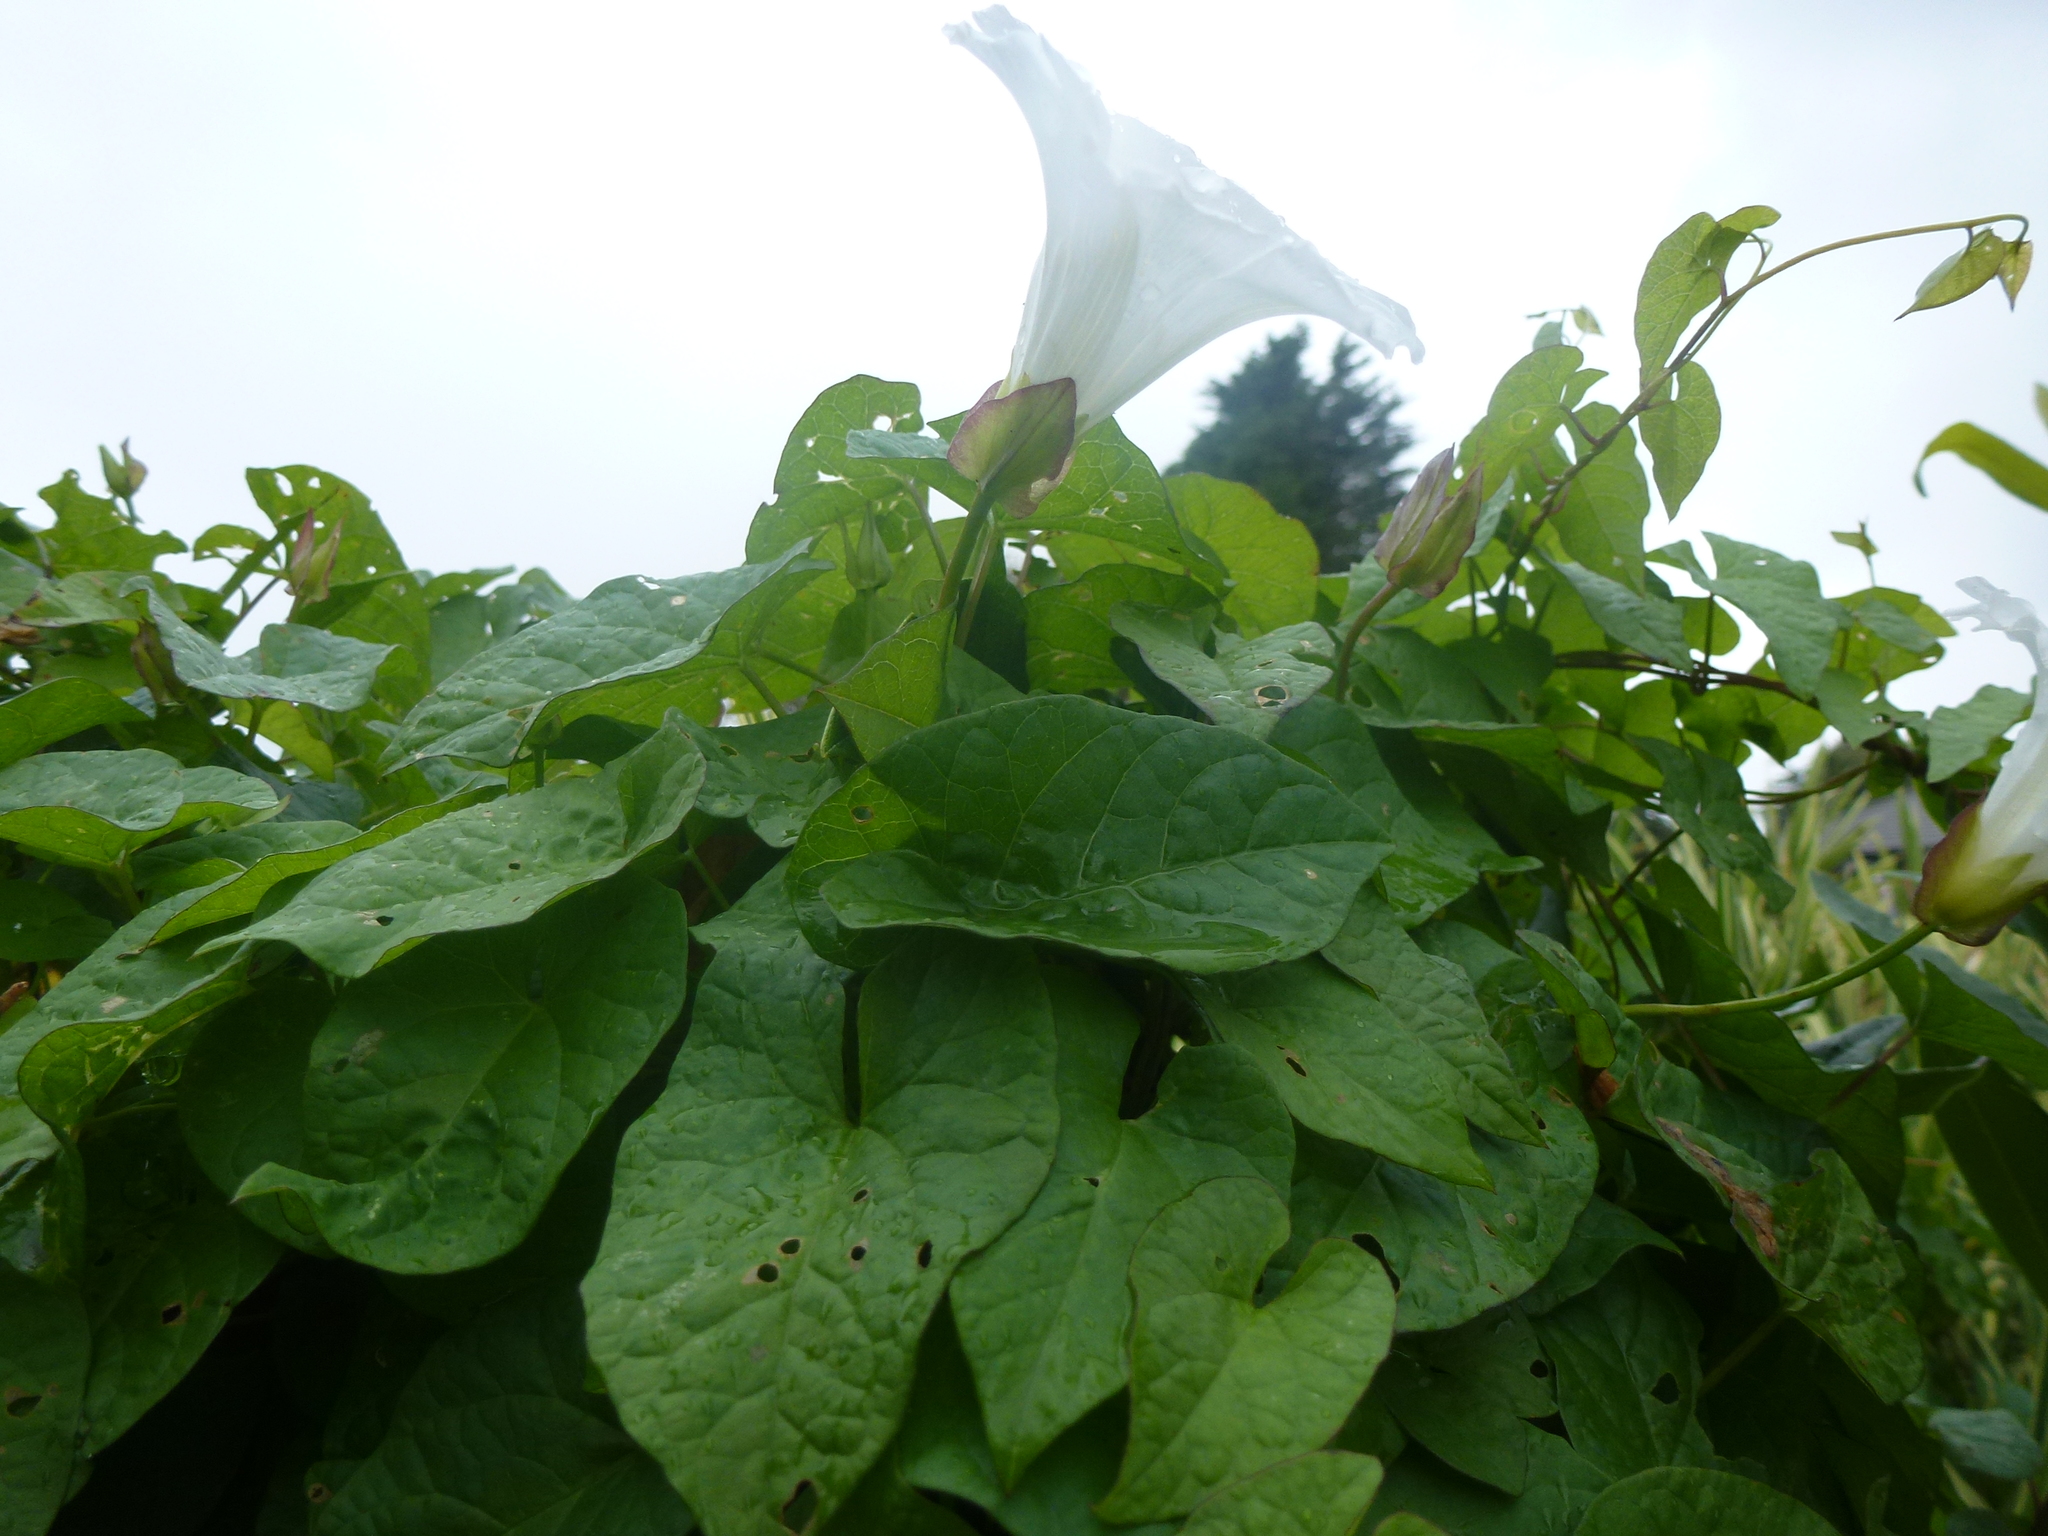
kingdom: Plantae
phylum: Tracheophyta
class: Magnoliopsida
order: Solanales
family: Convolvulaceae
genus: Calystegia
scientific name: Calystegia sepium
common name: Hedge bindweed
